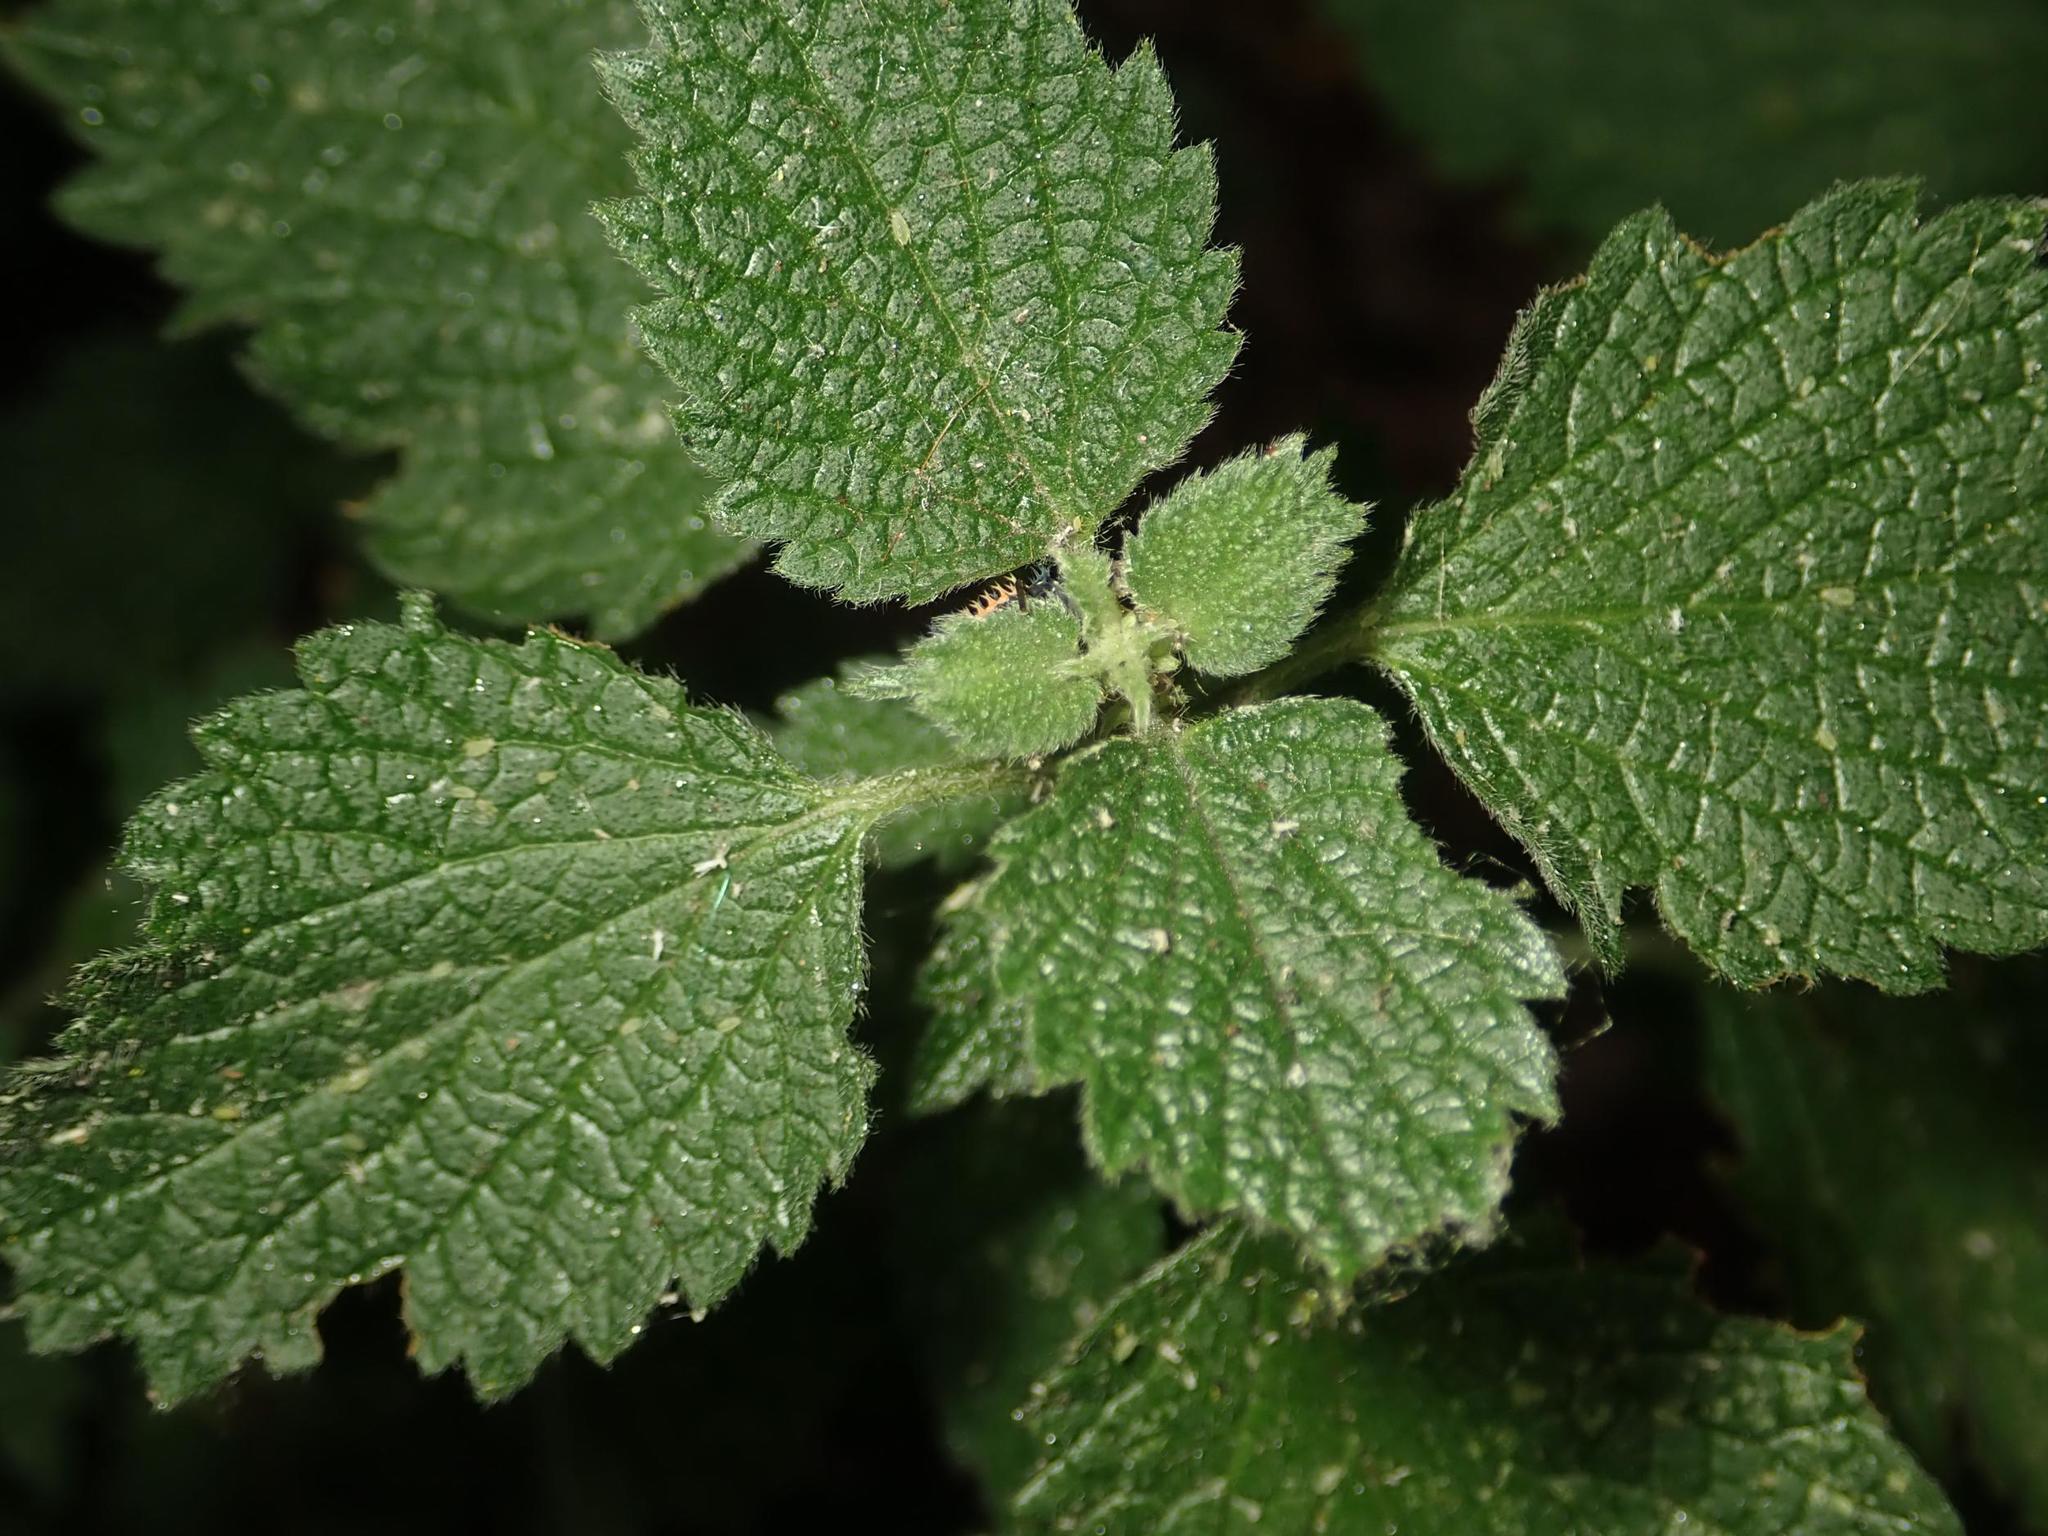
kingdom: Plantae
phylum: Tracheophyta
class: Magnoliopsida
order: Lamiales
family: Lamiaceae
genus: Ballota
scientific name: Ballota nigra
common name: Black horehound
